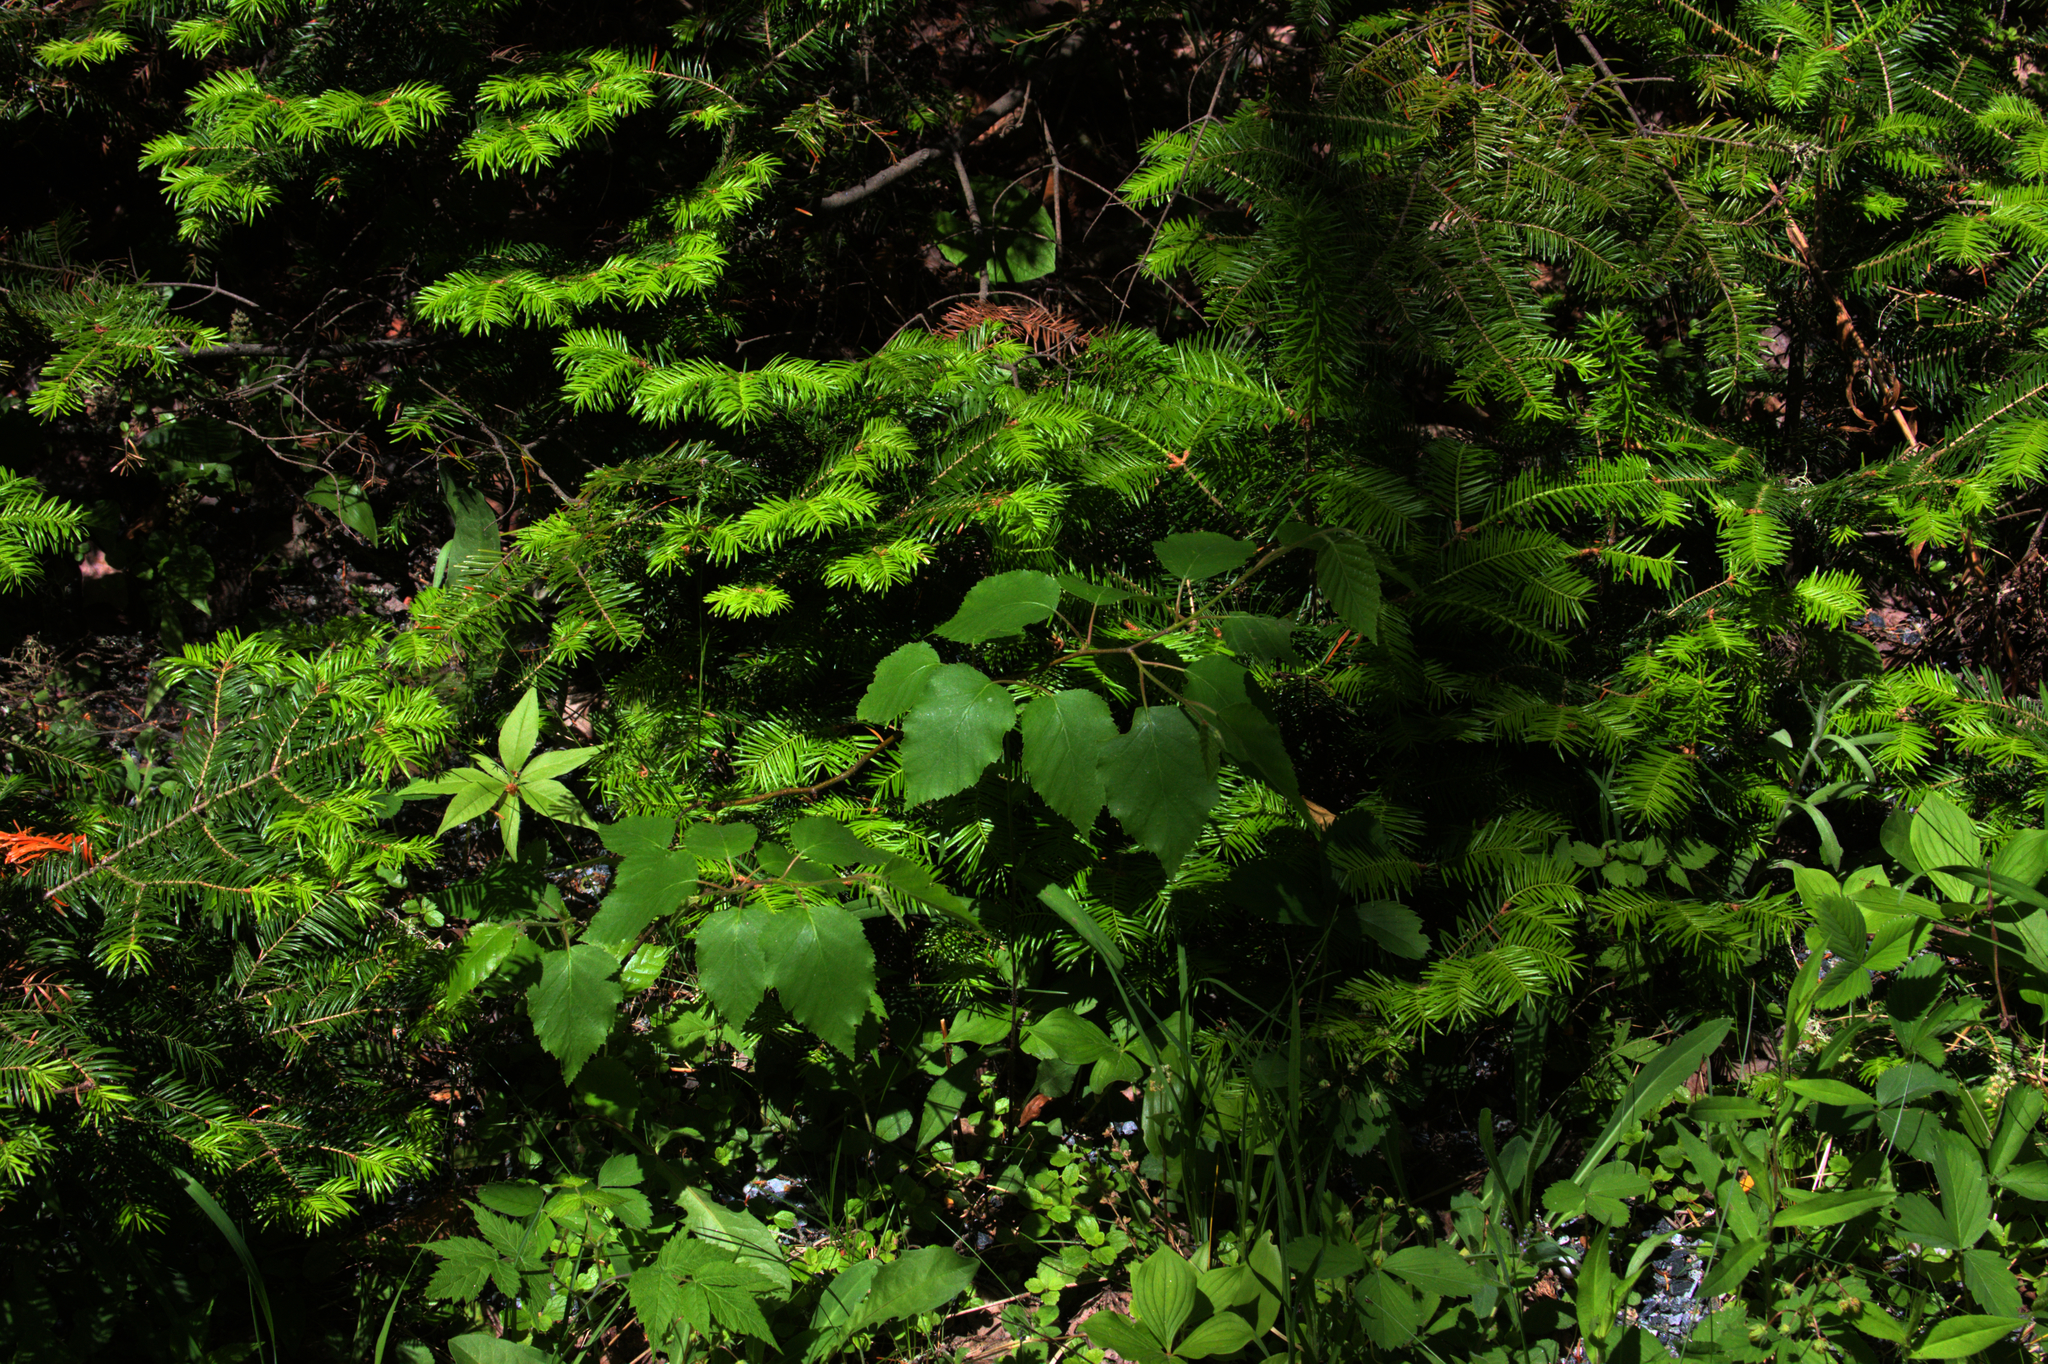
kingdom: Plantae
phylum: Tracheophyta
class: Pinopsida
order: Pinales
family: Pinaceae
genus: Abies
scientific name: Abies balsamea
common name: Balsam fir
